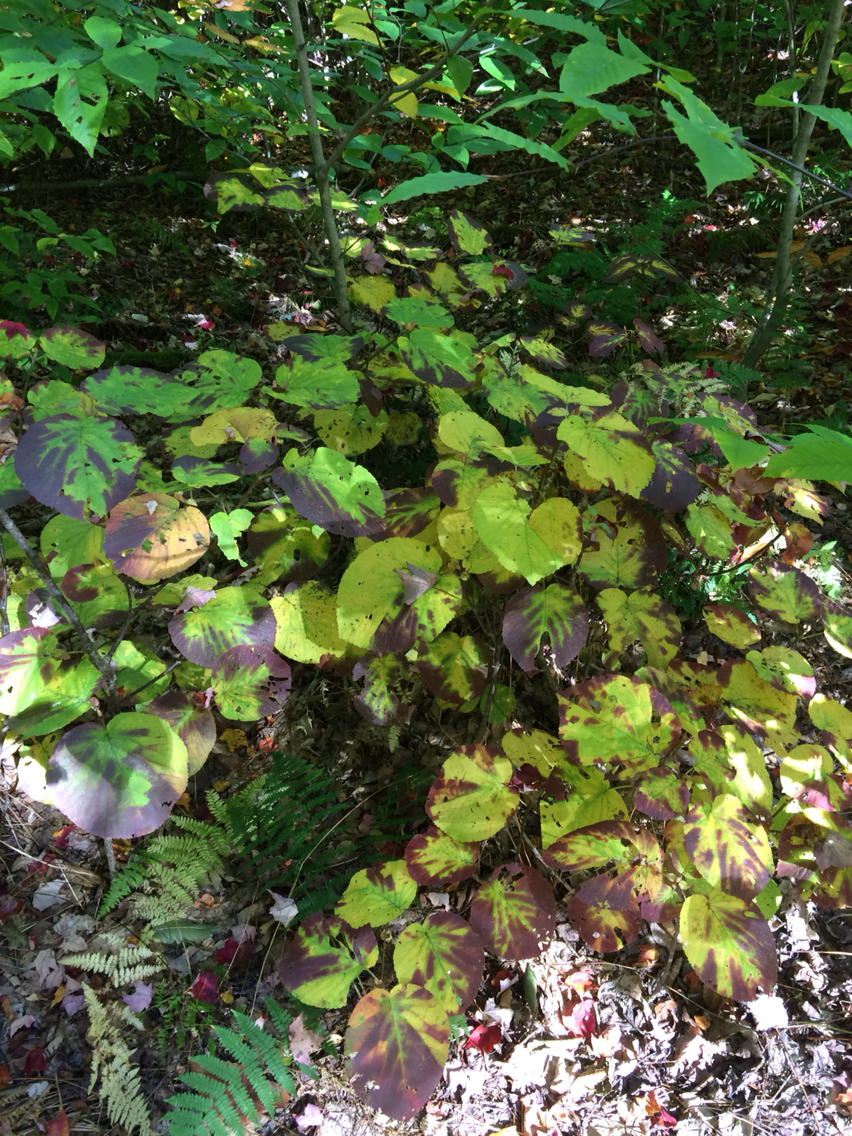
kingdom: Plantae
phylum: Tracheophyta
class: Magnoliopsida
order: Dipsacales
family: Viburnaceae
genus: Viburnum
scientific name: Viburnum lantanoides
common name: Hobblebush
